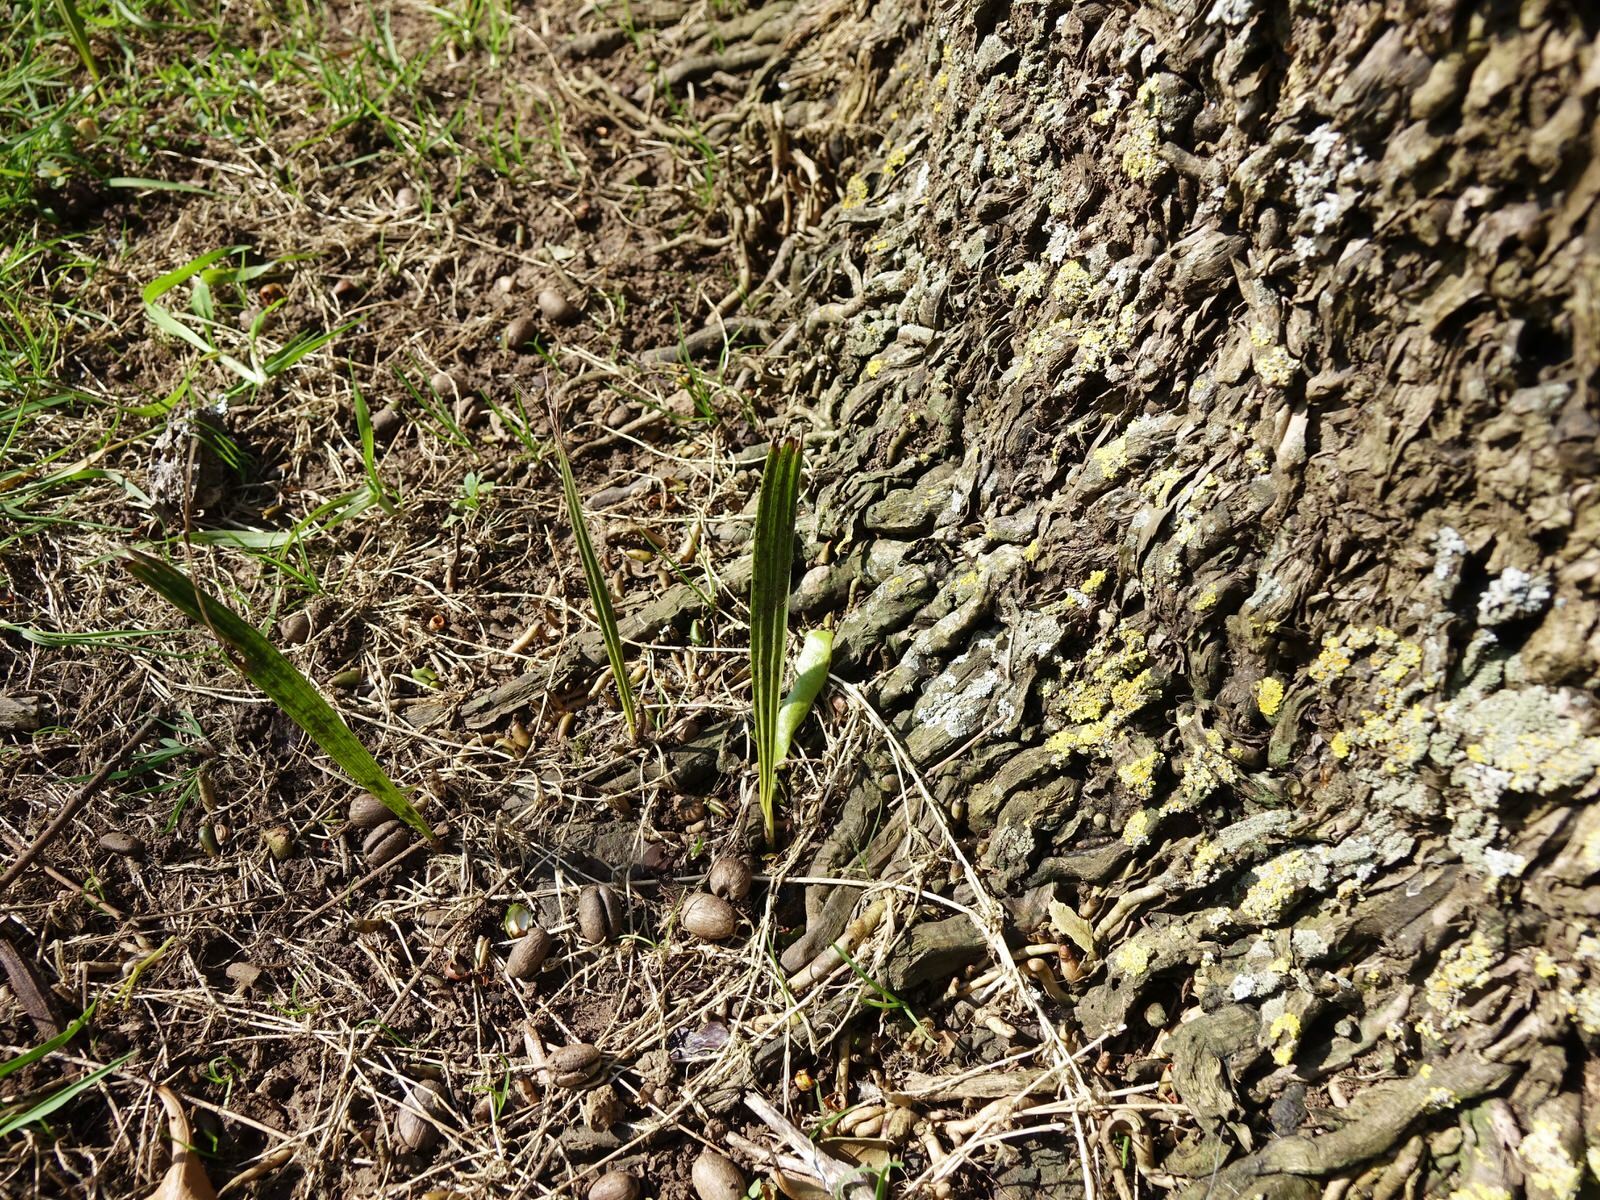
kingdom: Plantae
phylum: Tracheophyta
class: Liliopsida
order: Arecales
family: Arecaceae
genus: Phoenix
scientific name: Phoenix canariensis
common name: Canary island date palm
